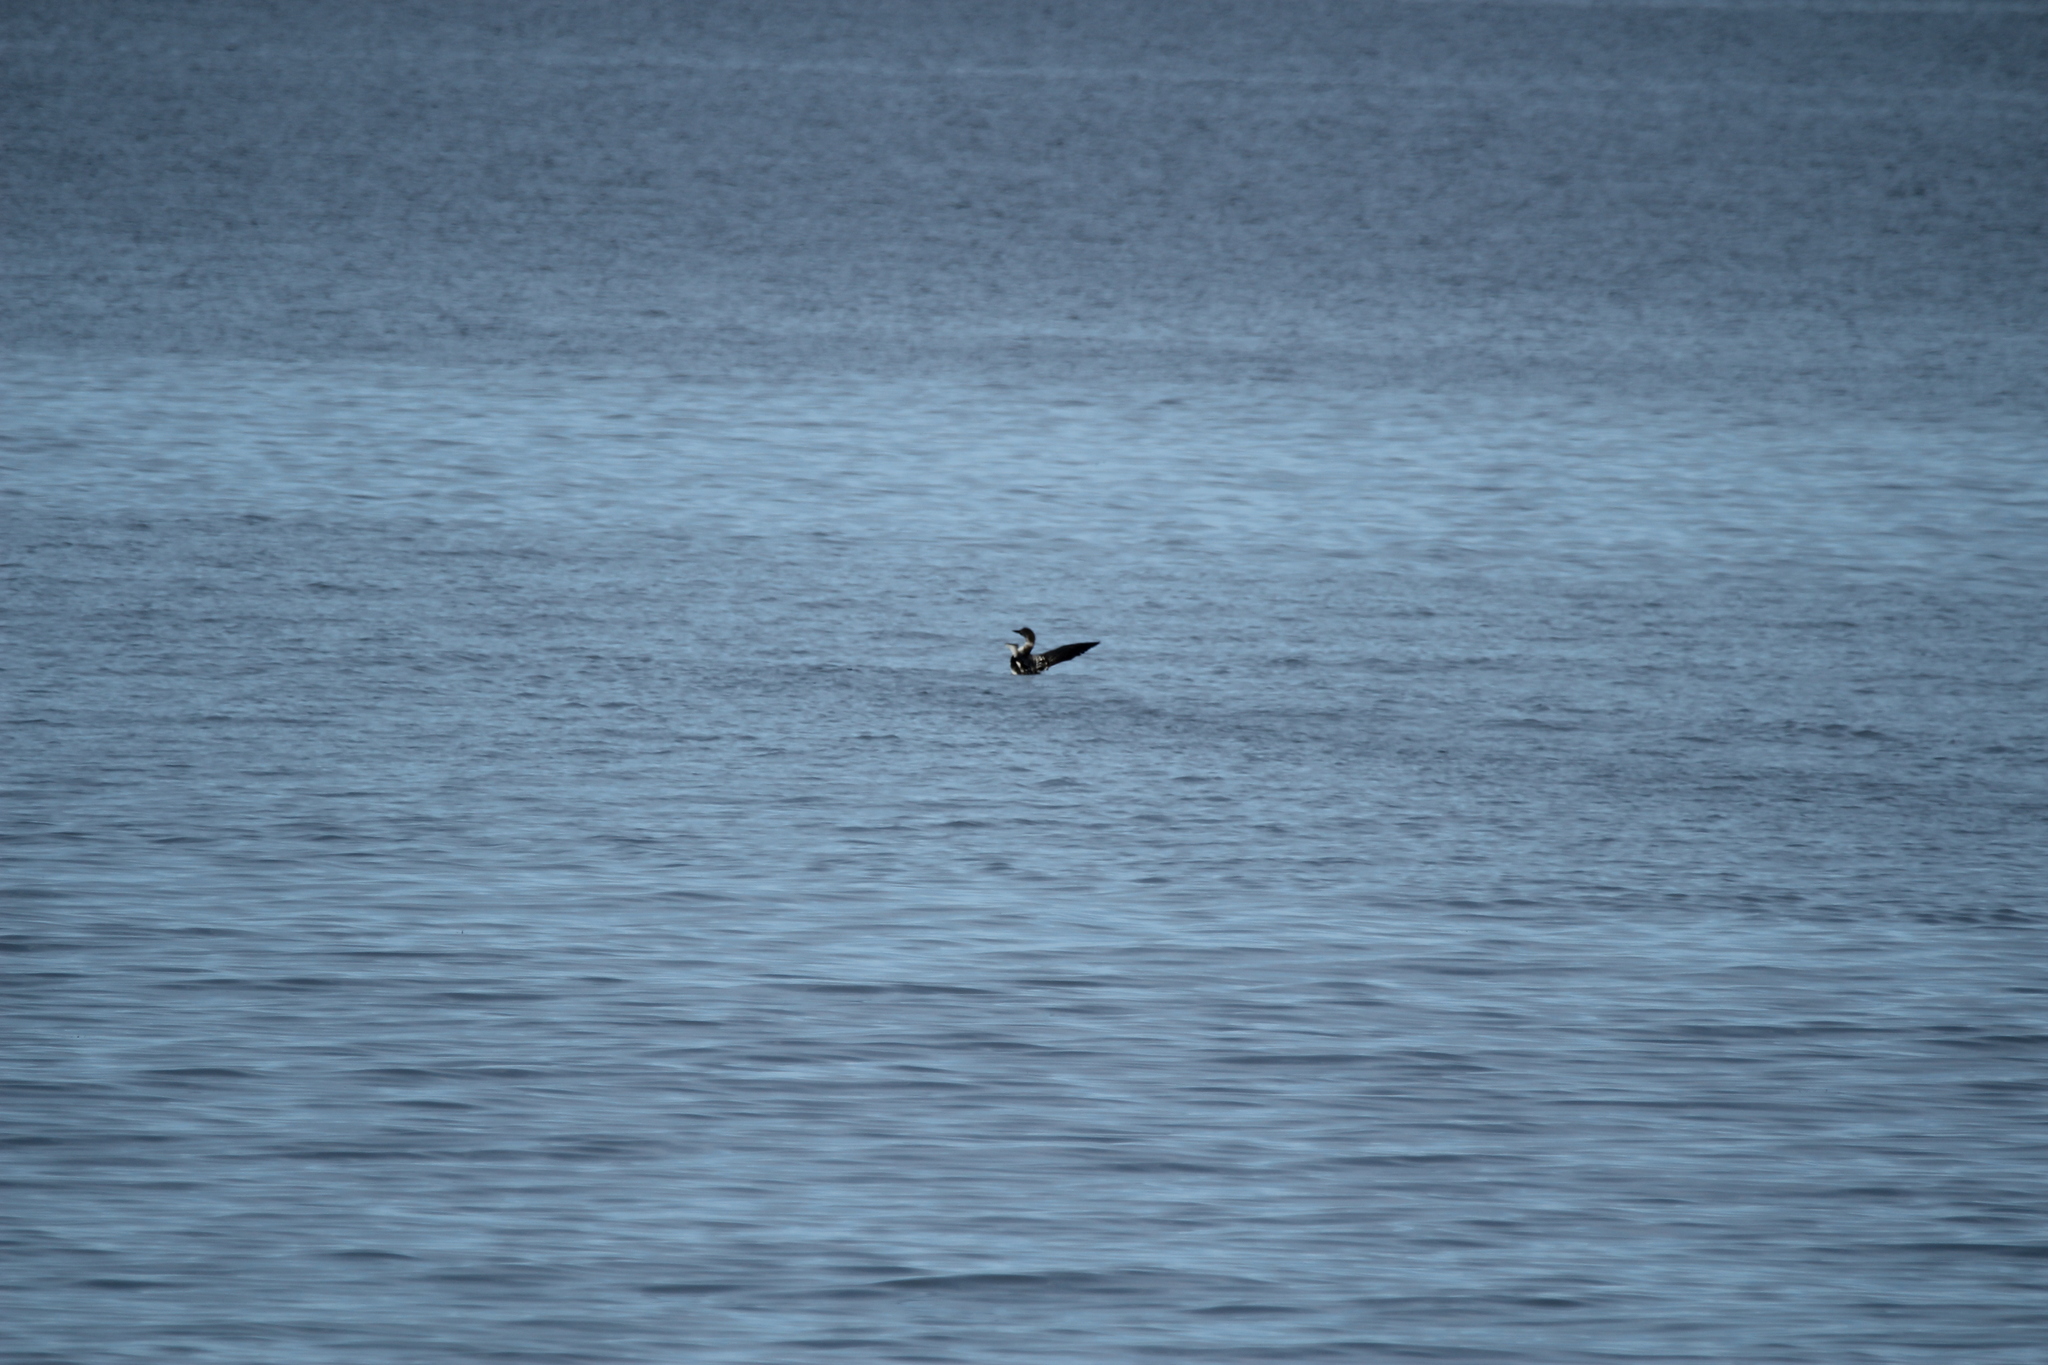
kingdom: Animalia
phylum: Chordata
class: Aves
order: Gaviiformes
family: Gaviidae
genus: Gavia
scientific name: Gavia immer
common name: Common loon
